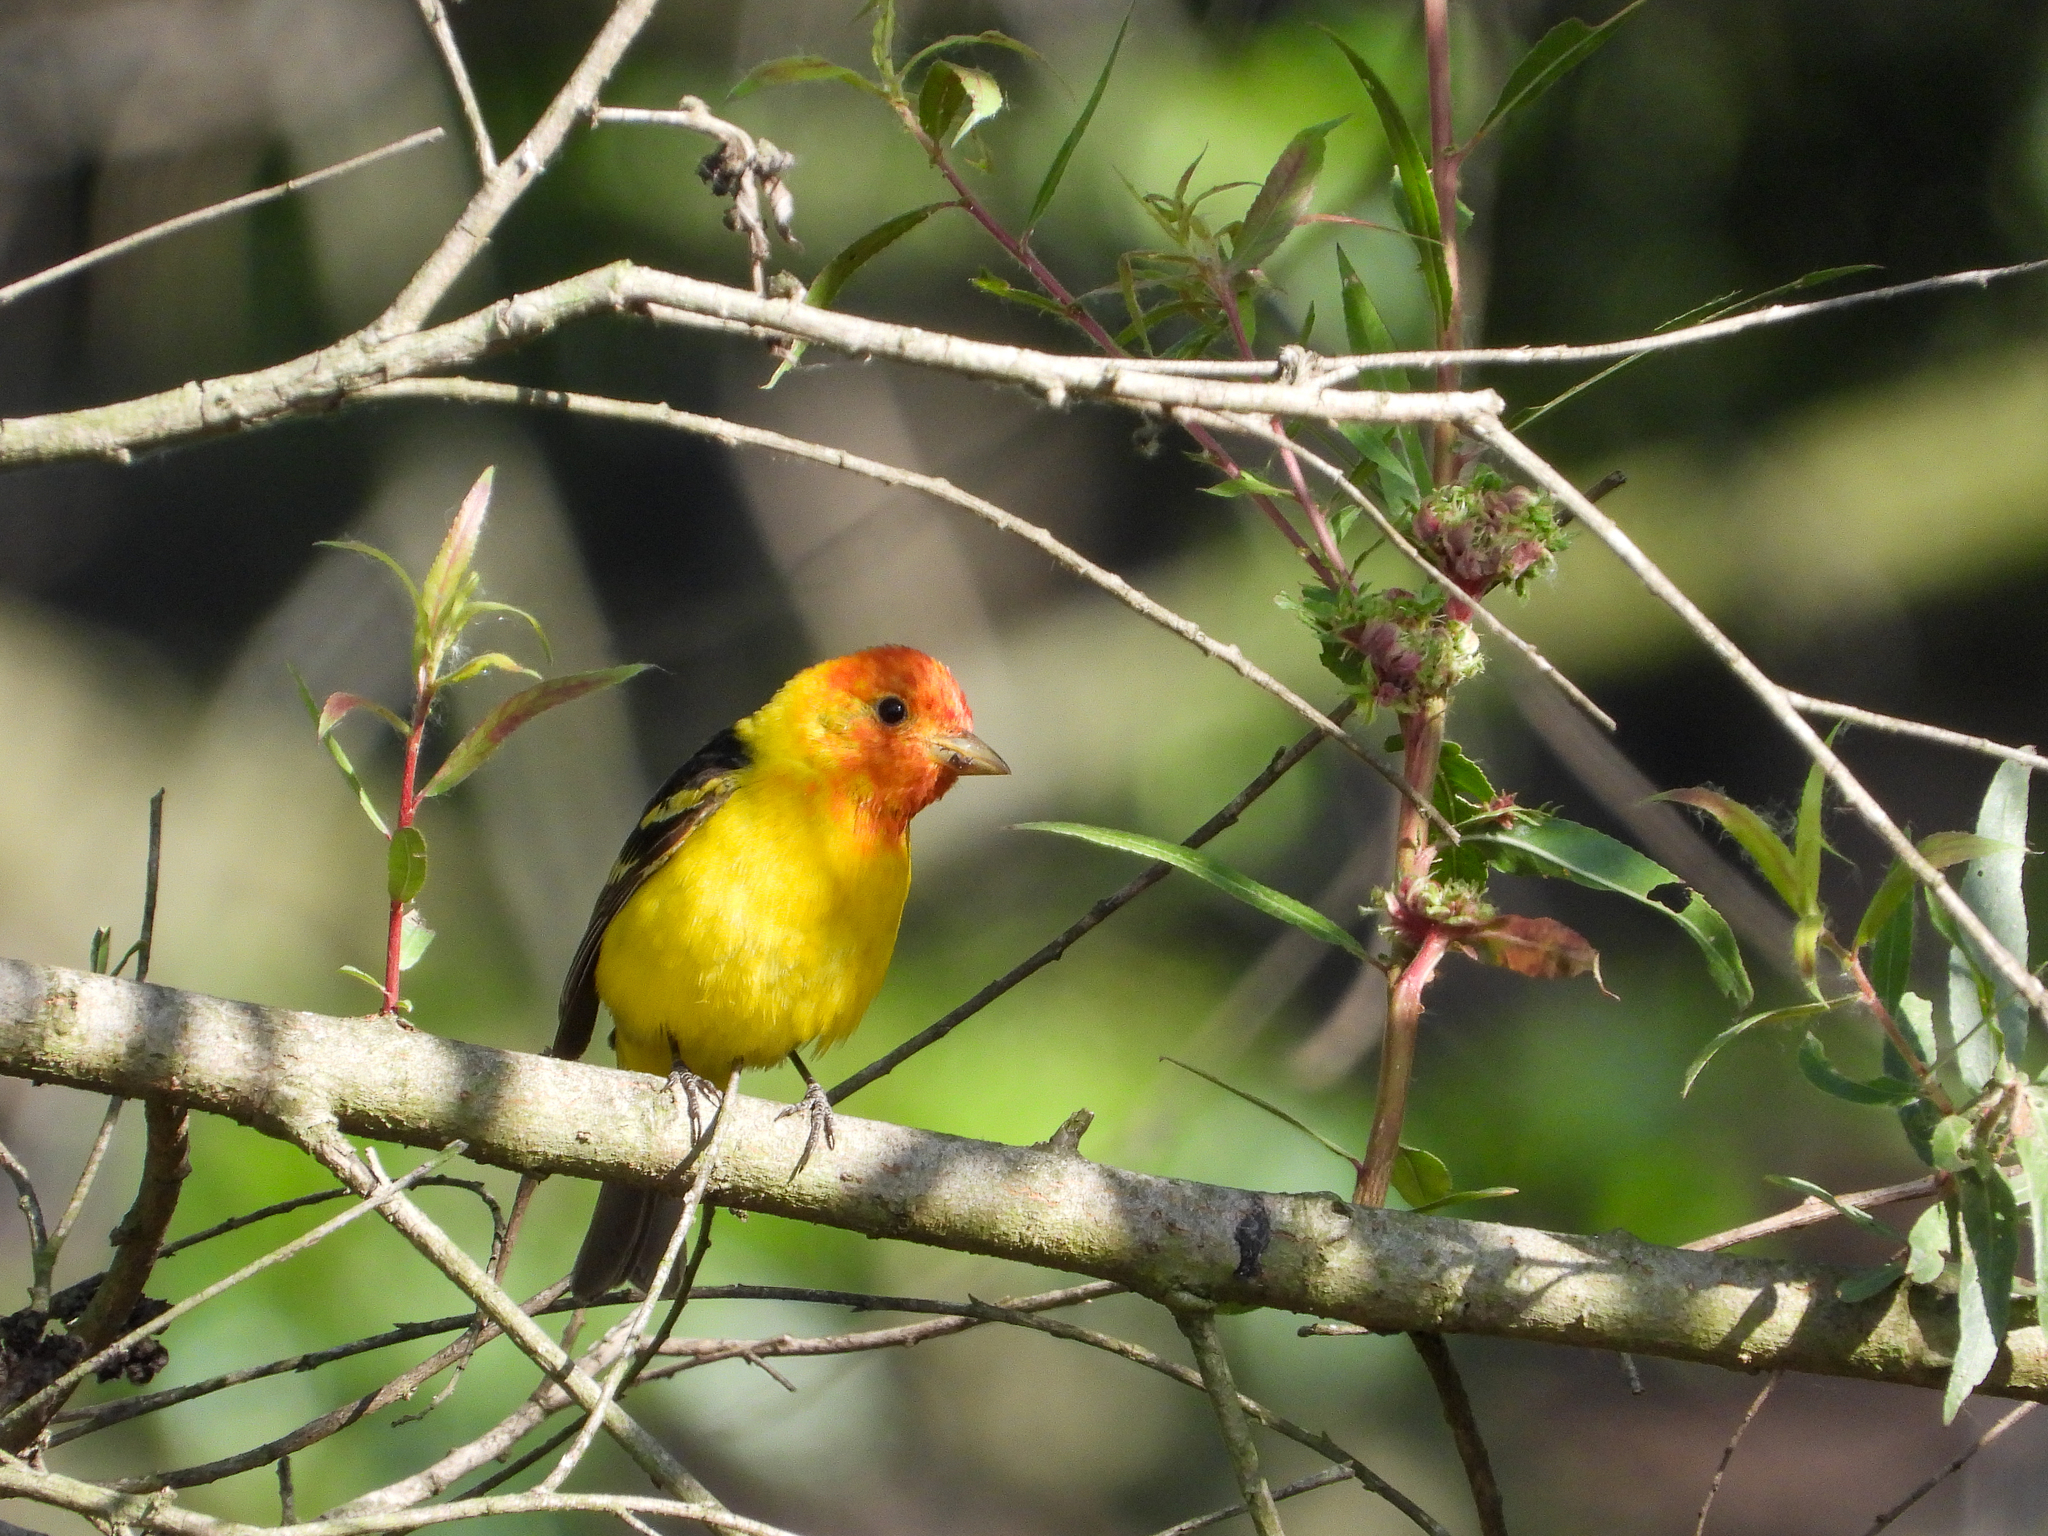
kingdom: Animalia
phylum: Chordata
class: Aves
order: Passeriformes
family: Cardinalidae
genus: Piranga
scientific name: Piranga ludoviciana
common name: Western tanager
